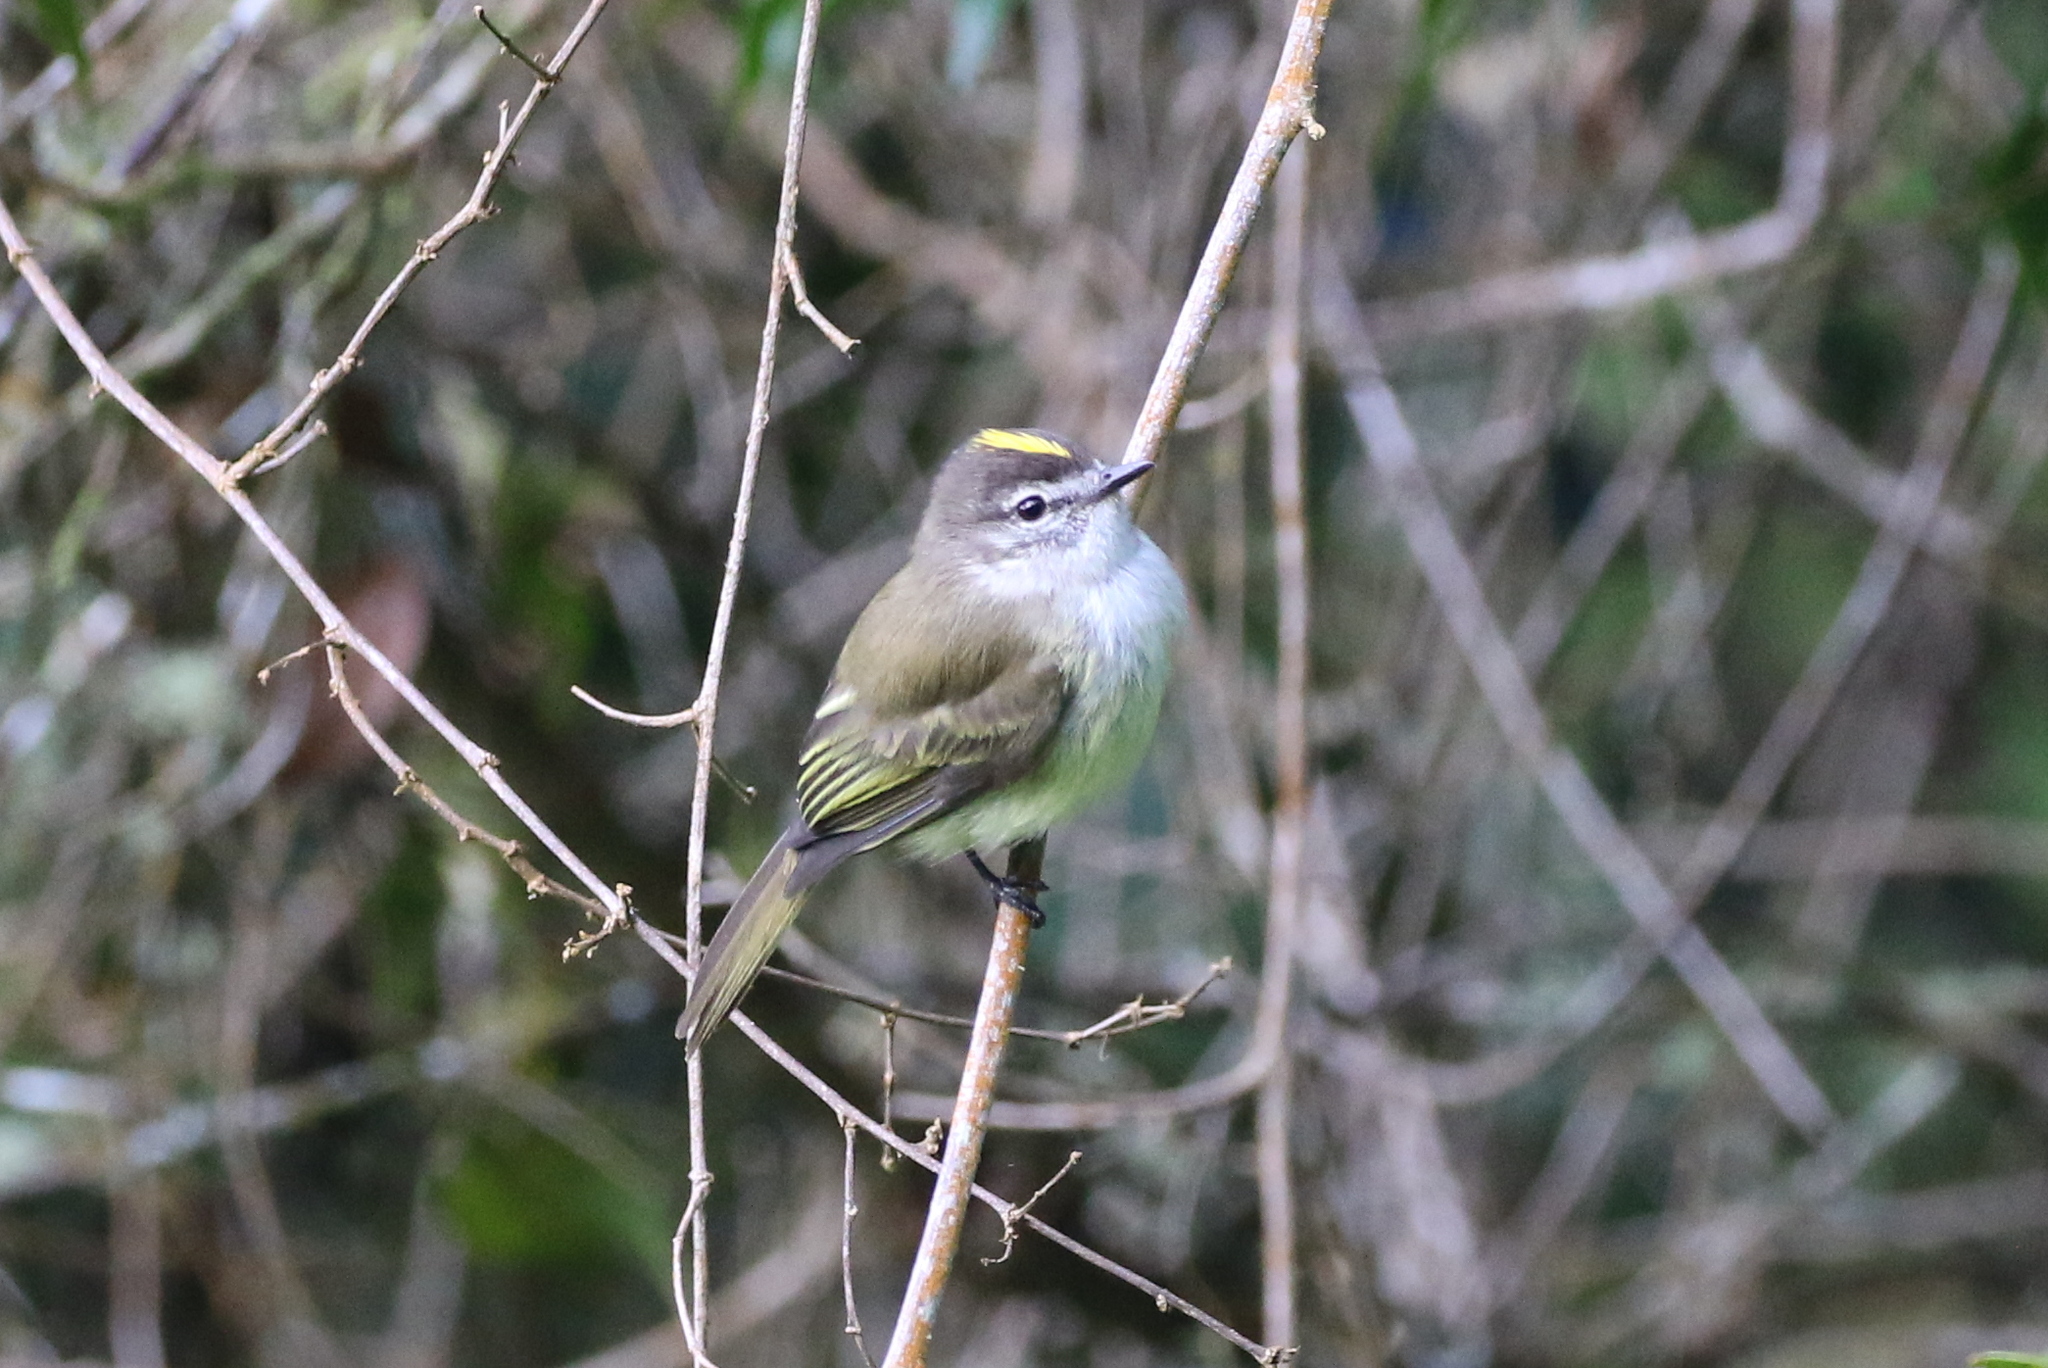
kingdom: Animalia
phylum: Chordata
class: Aves
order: Passeriformes
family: Tyrannidae
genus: Myiopagis
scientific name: Myiopagis cotta
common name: Jamaican elaenia
